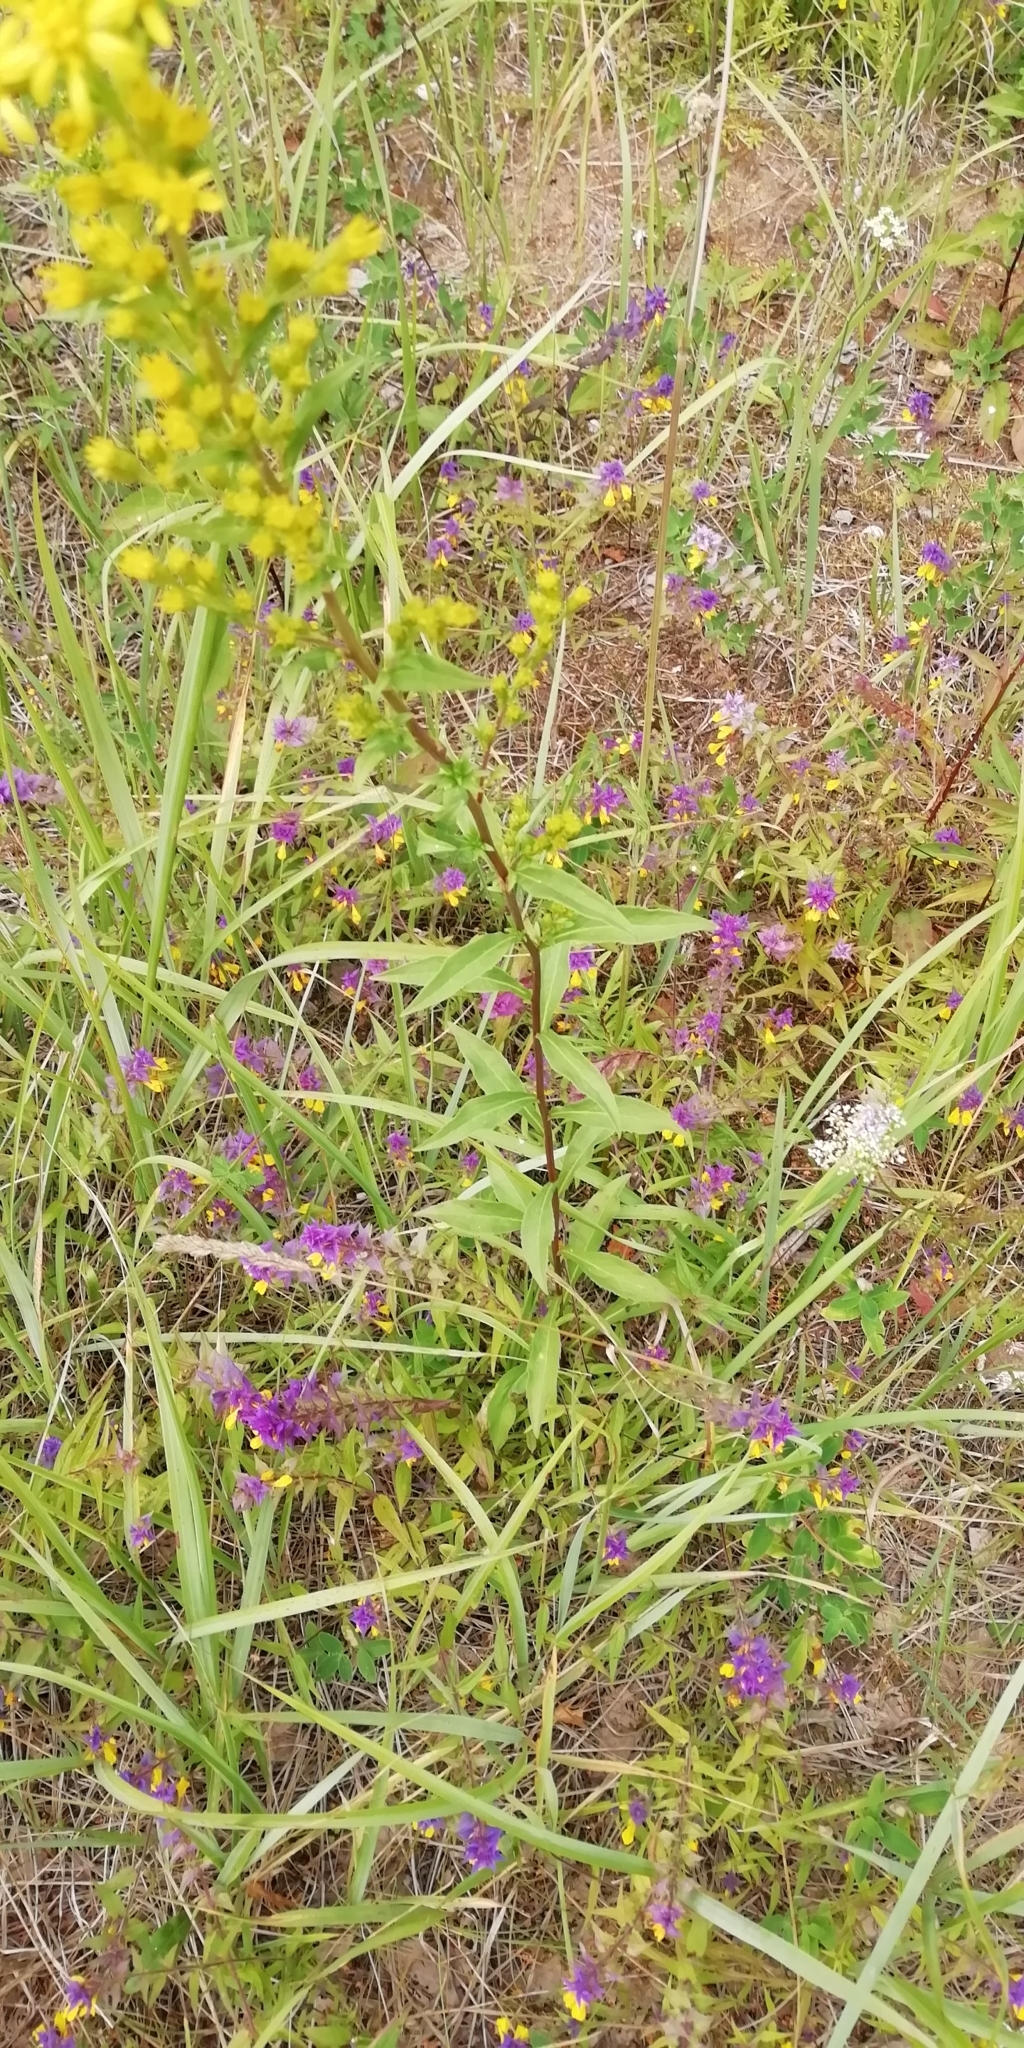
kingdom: Plantae
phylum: Tracheophyta
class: Magnoliopsida
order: Asterales
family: Asteraceae
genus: Solidago
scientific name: Solidago virgaurea
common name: Goldenrod
